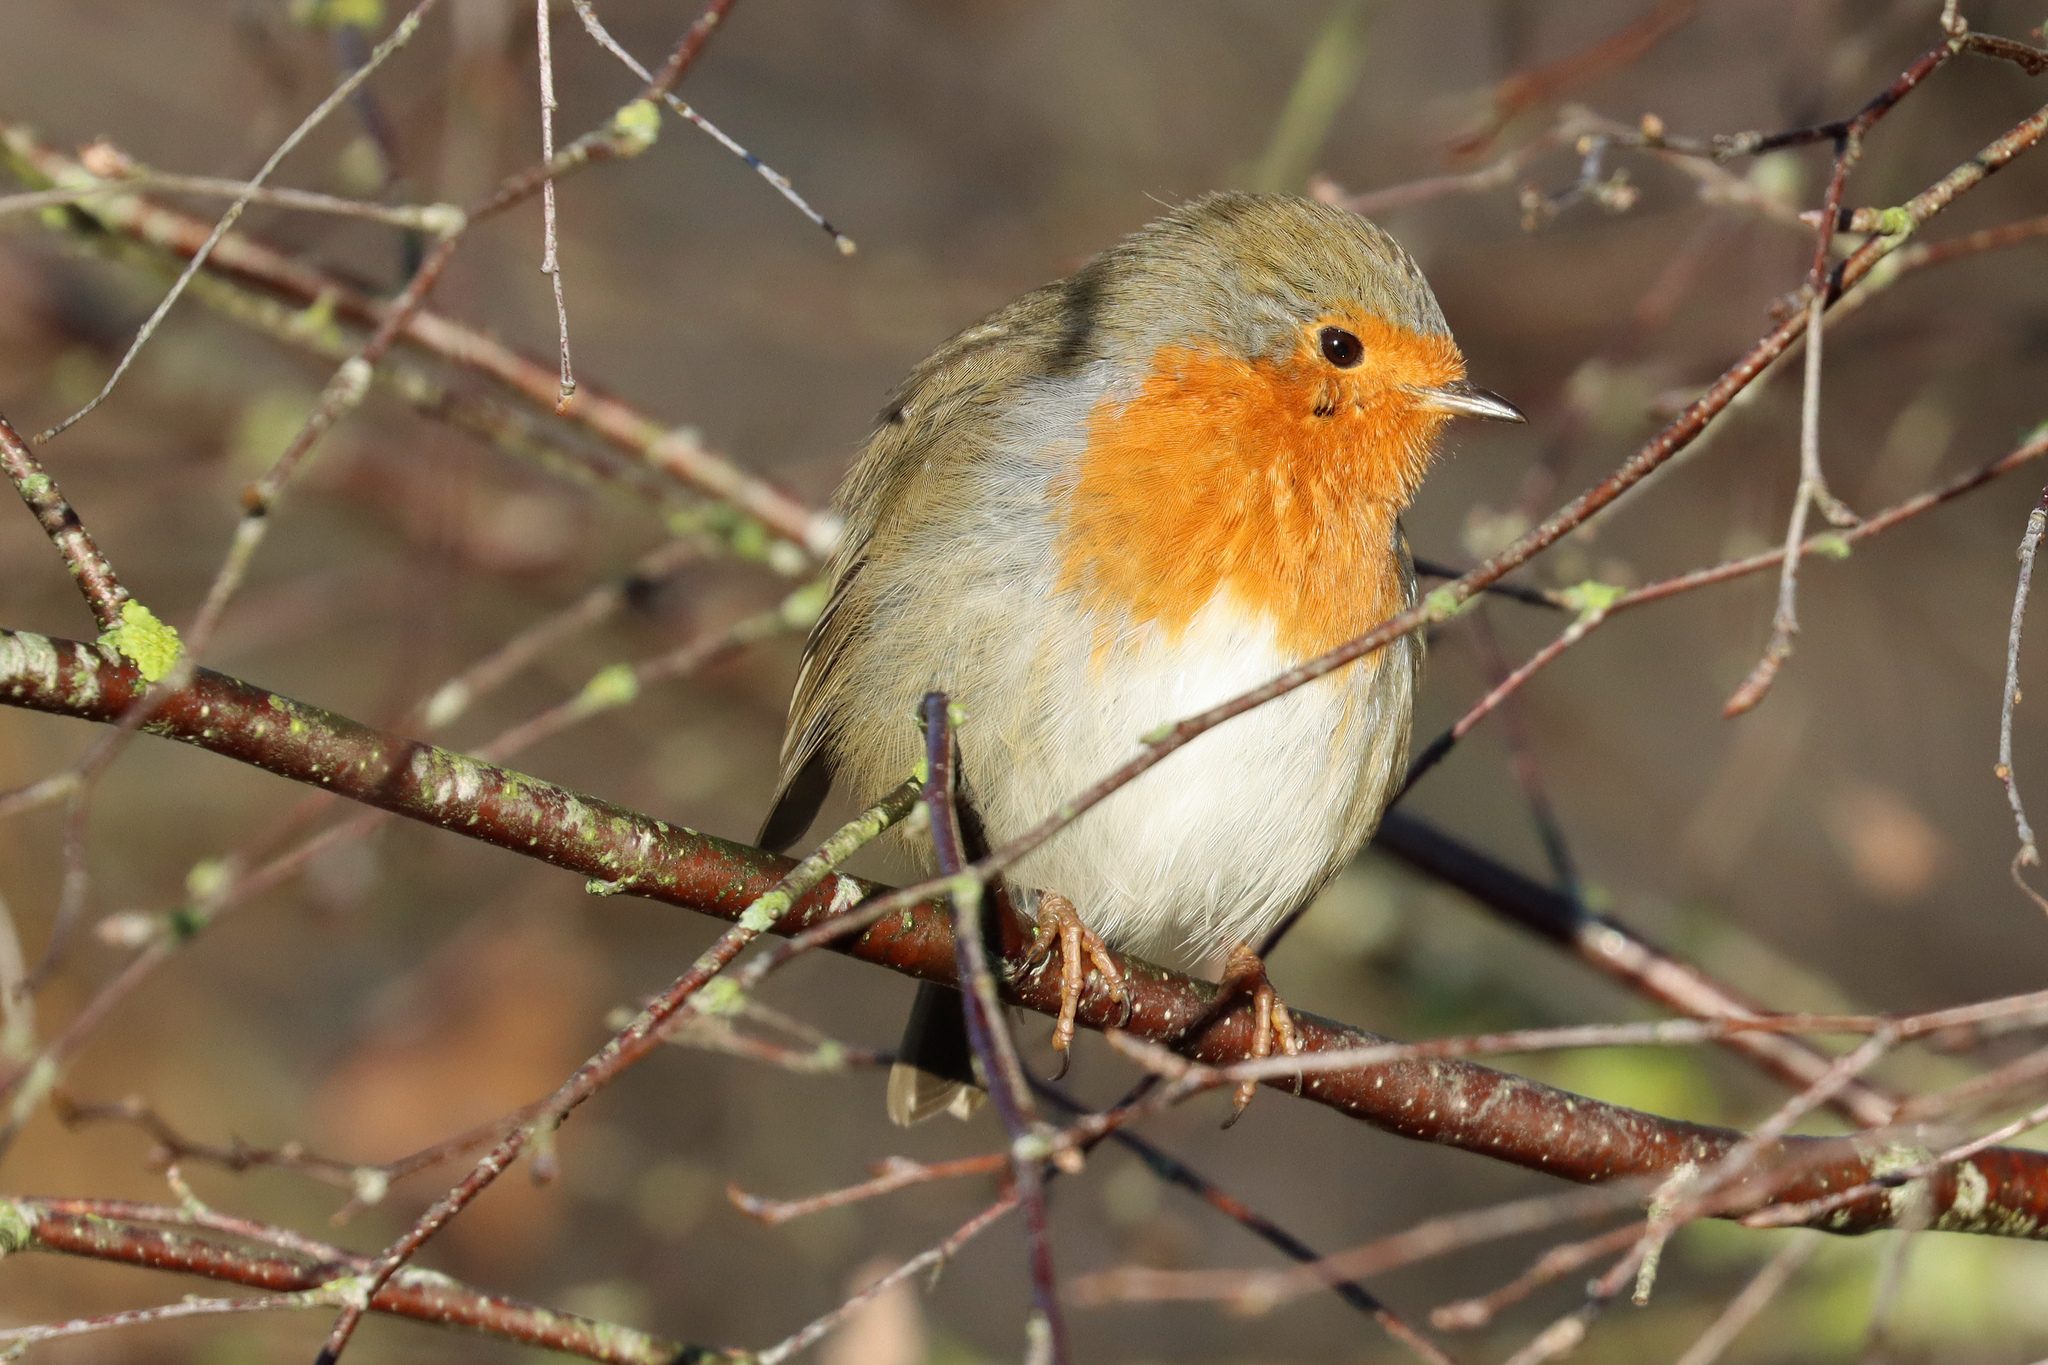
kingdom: Animalia
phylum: Chordata
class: Aves
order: Passeriformes
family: Muscicapidae
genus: Erithacus
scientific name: Erithacus rubecula
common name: European robin
